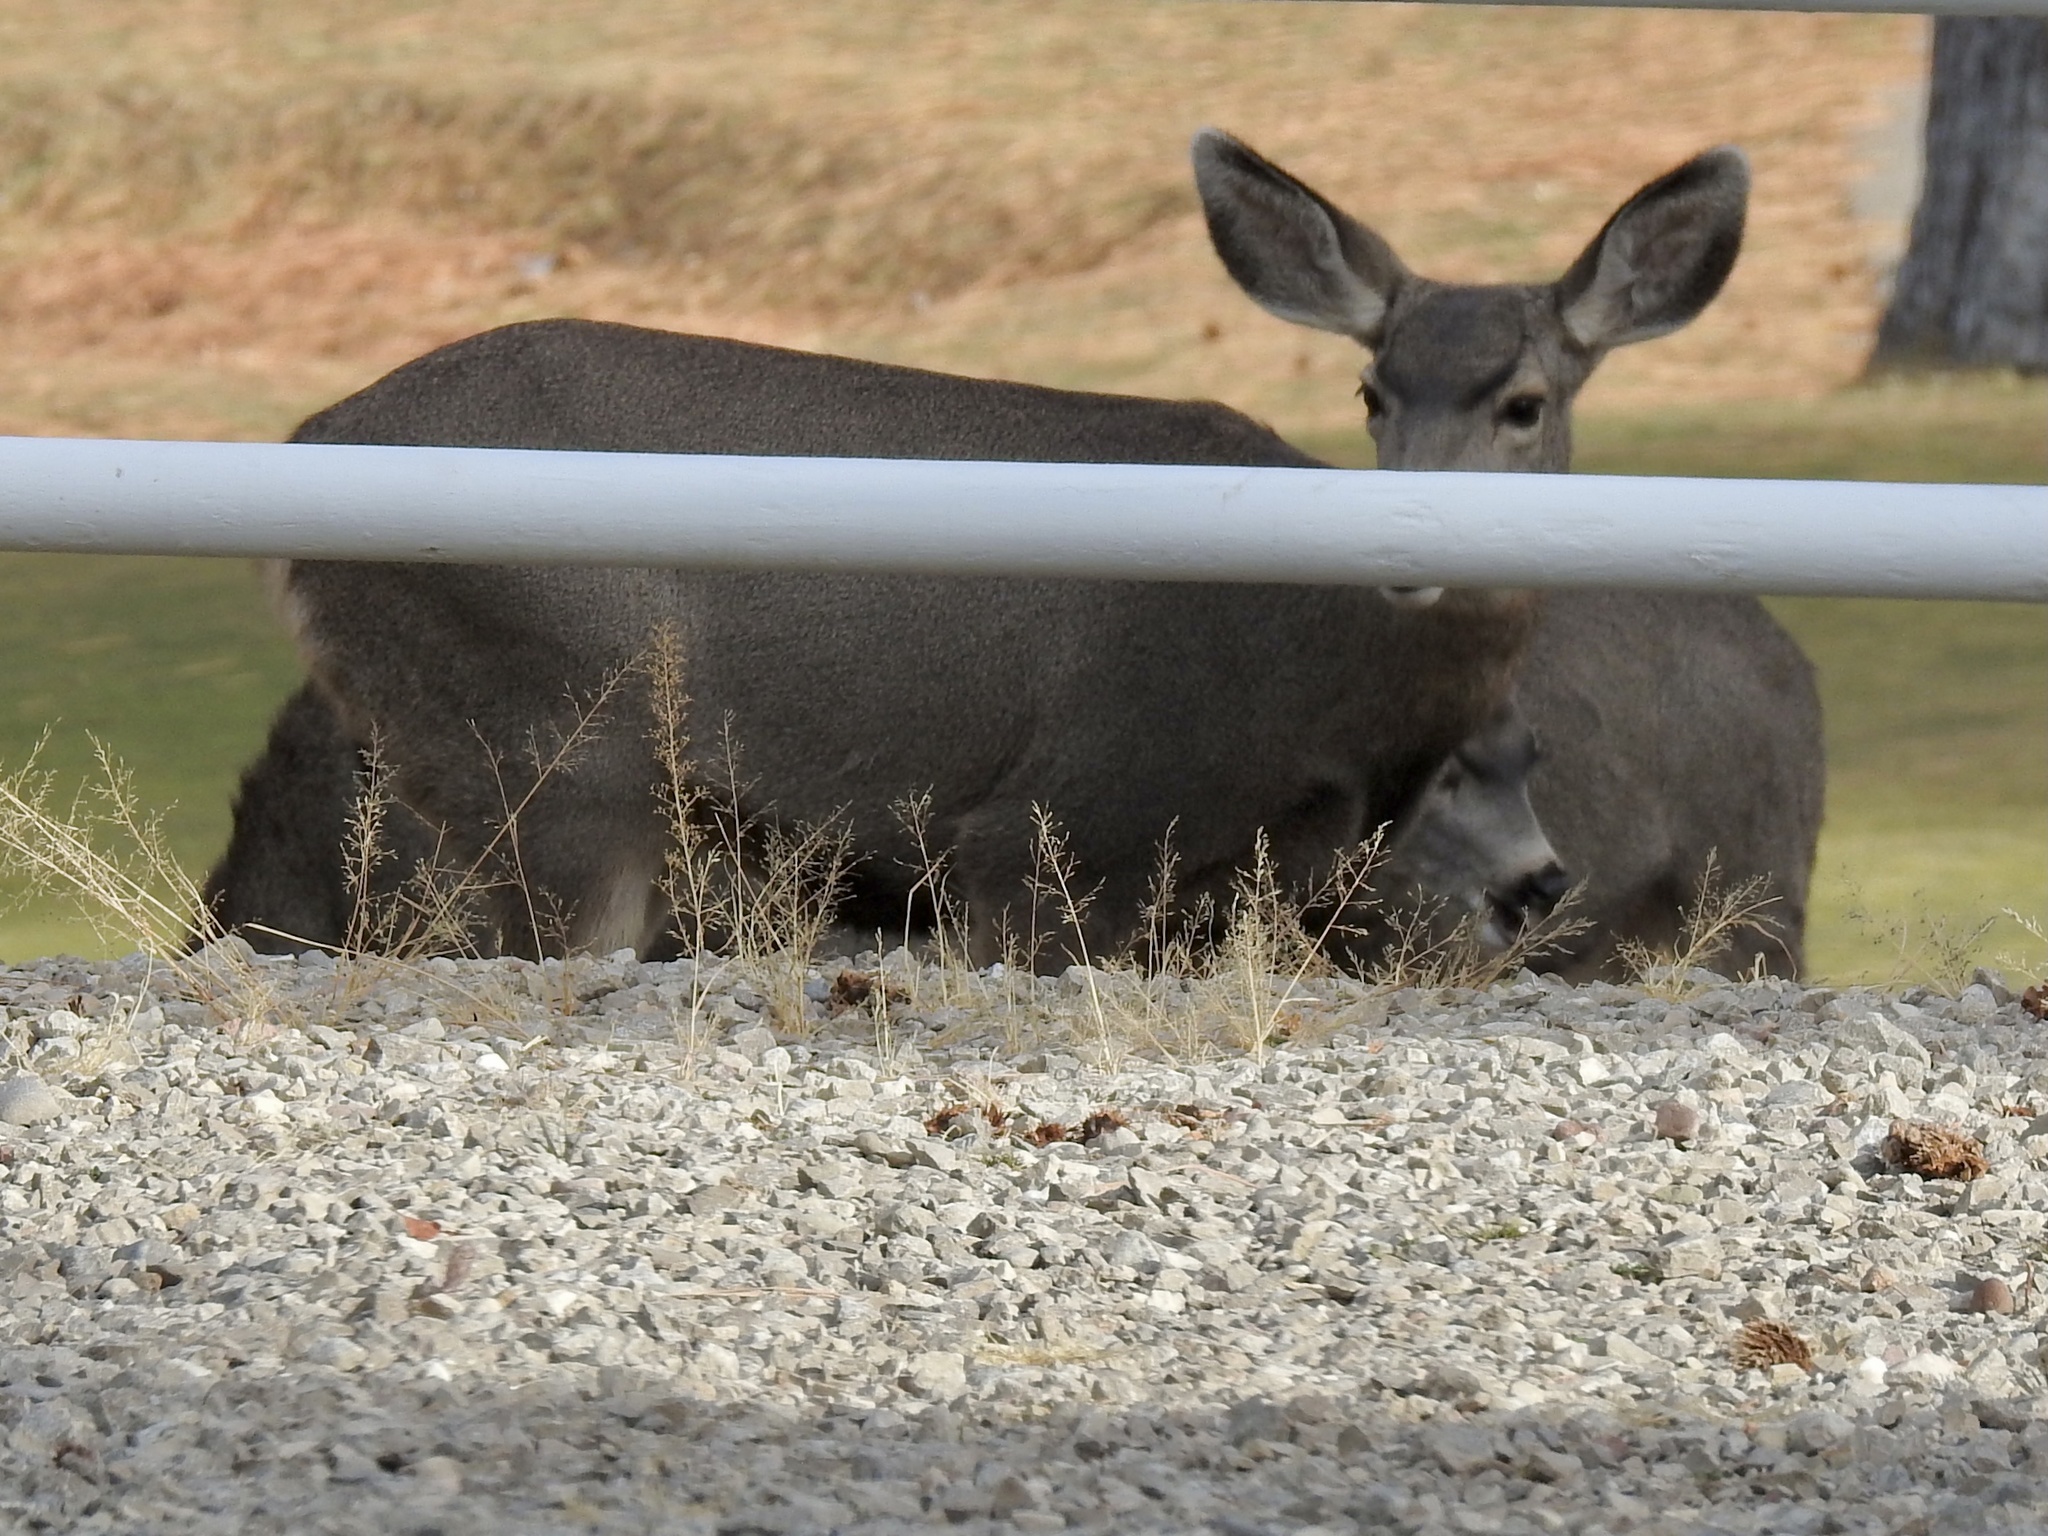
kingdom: Animalia
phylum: Chordata
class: Mammalia
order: Artiodactyla
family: Cervidae
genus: Odocoileus
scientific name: Odocoileus hemionus
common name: Mule deer
